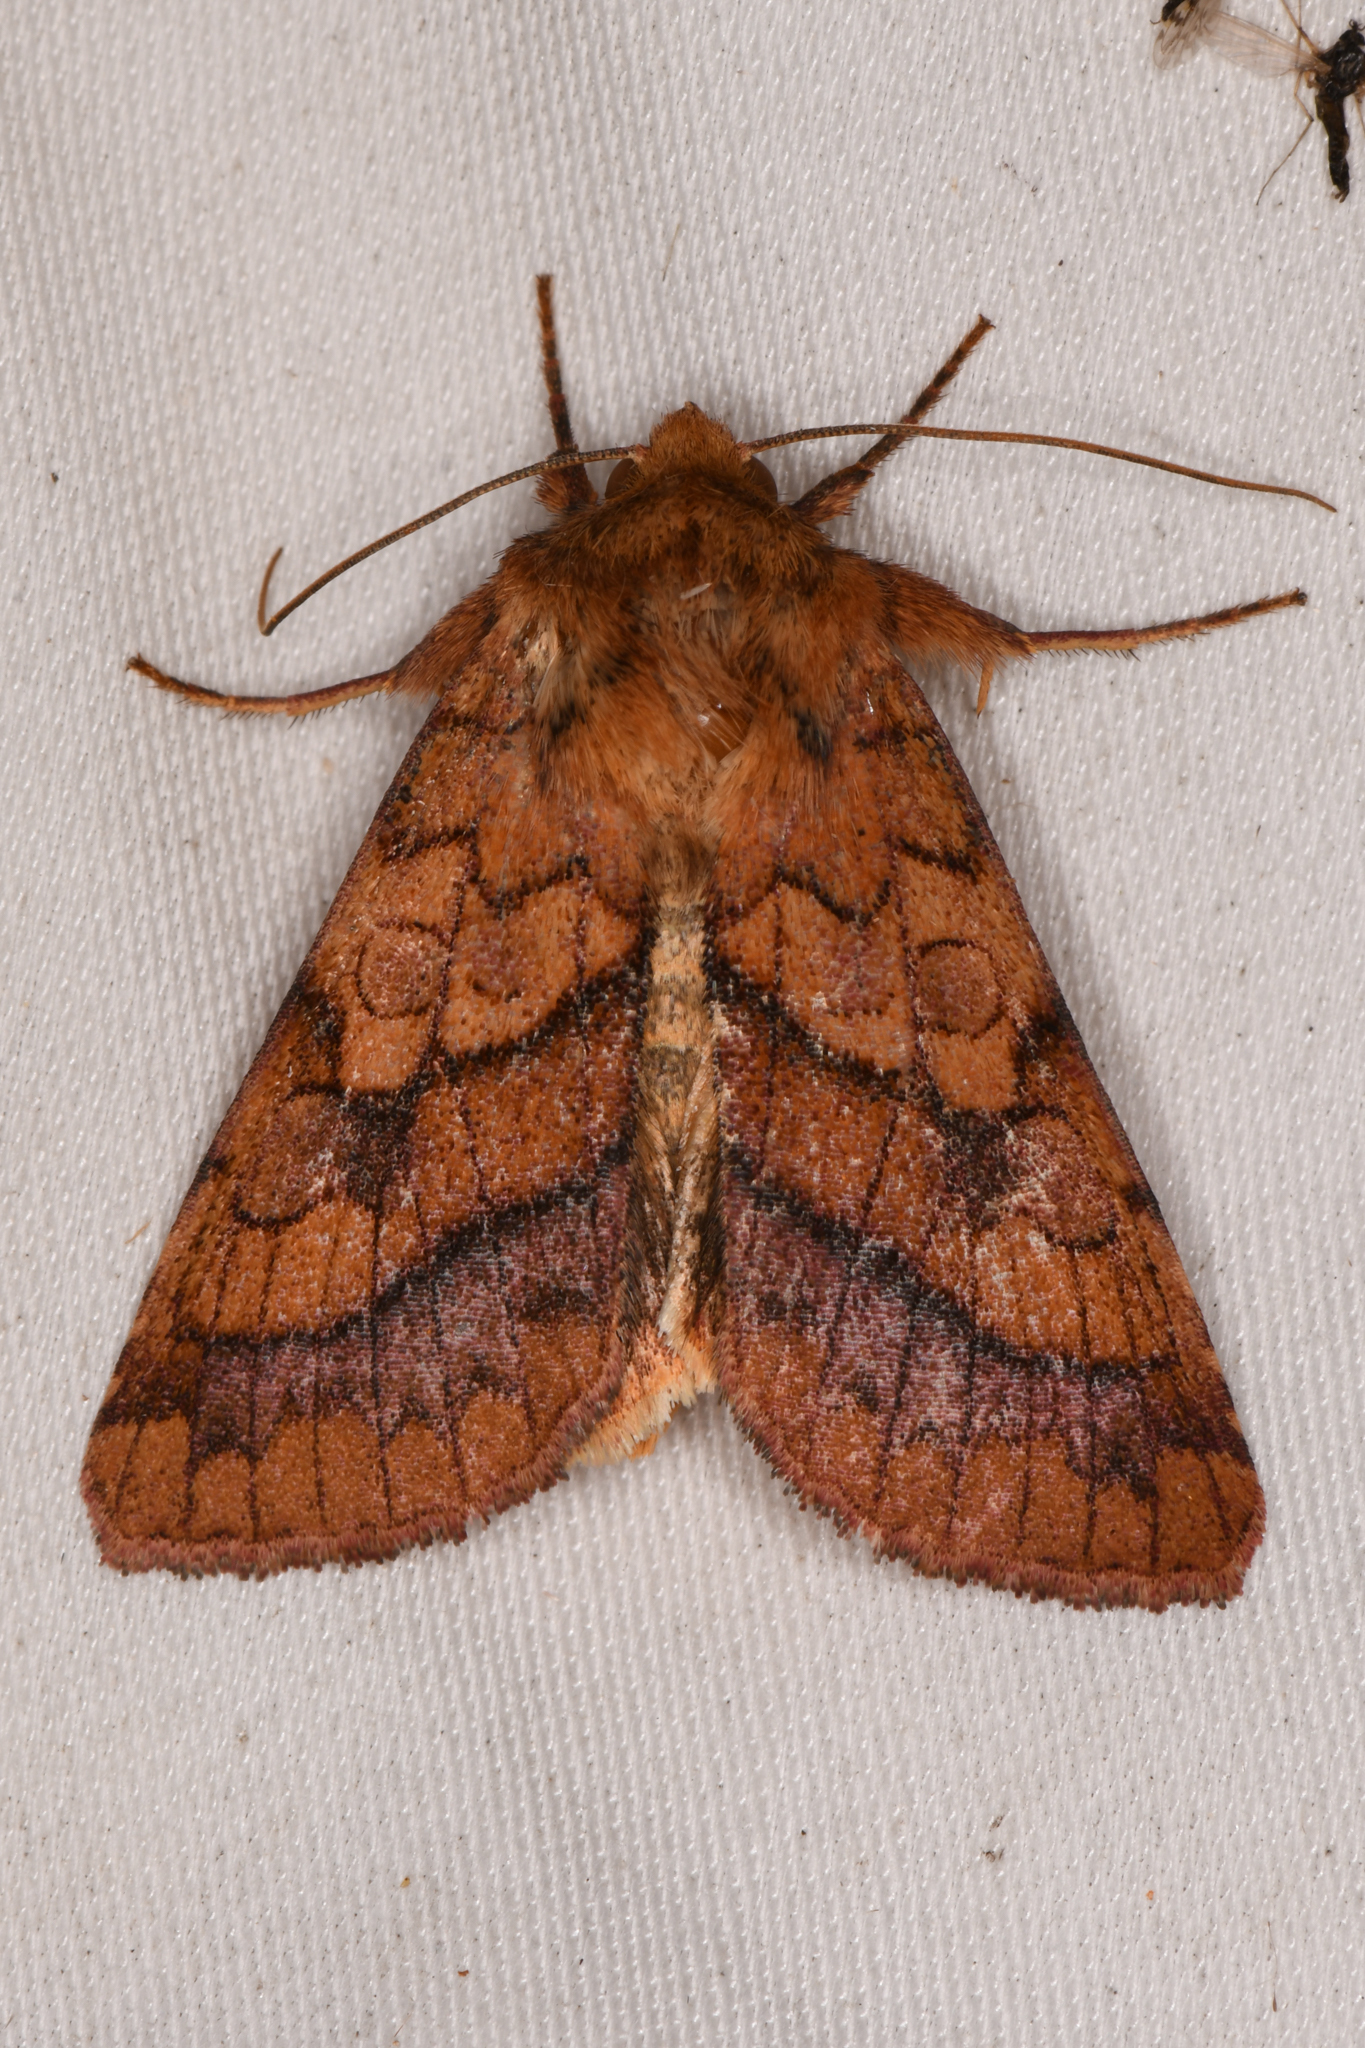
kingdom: Animalia
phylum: Arthropoda
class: Insecta
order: Lepidoptera
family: Noctuidae
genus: Pyrrhia
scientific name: Pyrrhia exprimens
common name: Purple-lined sallow
